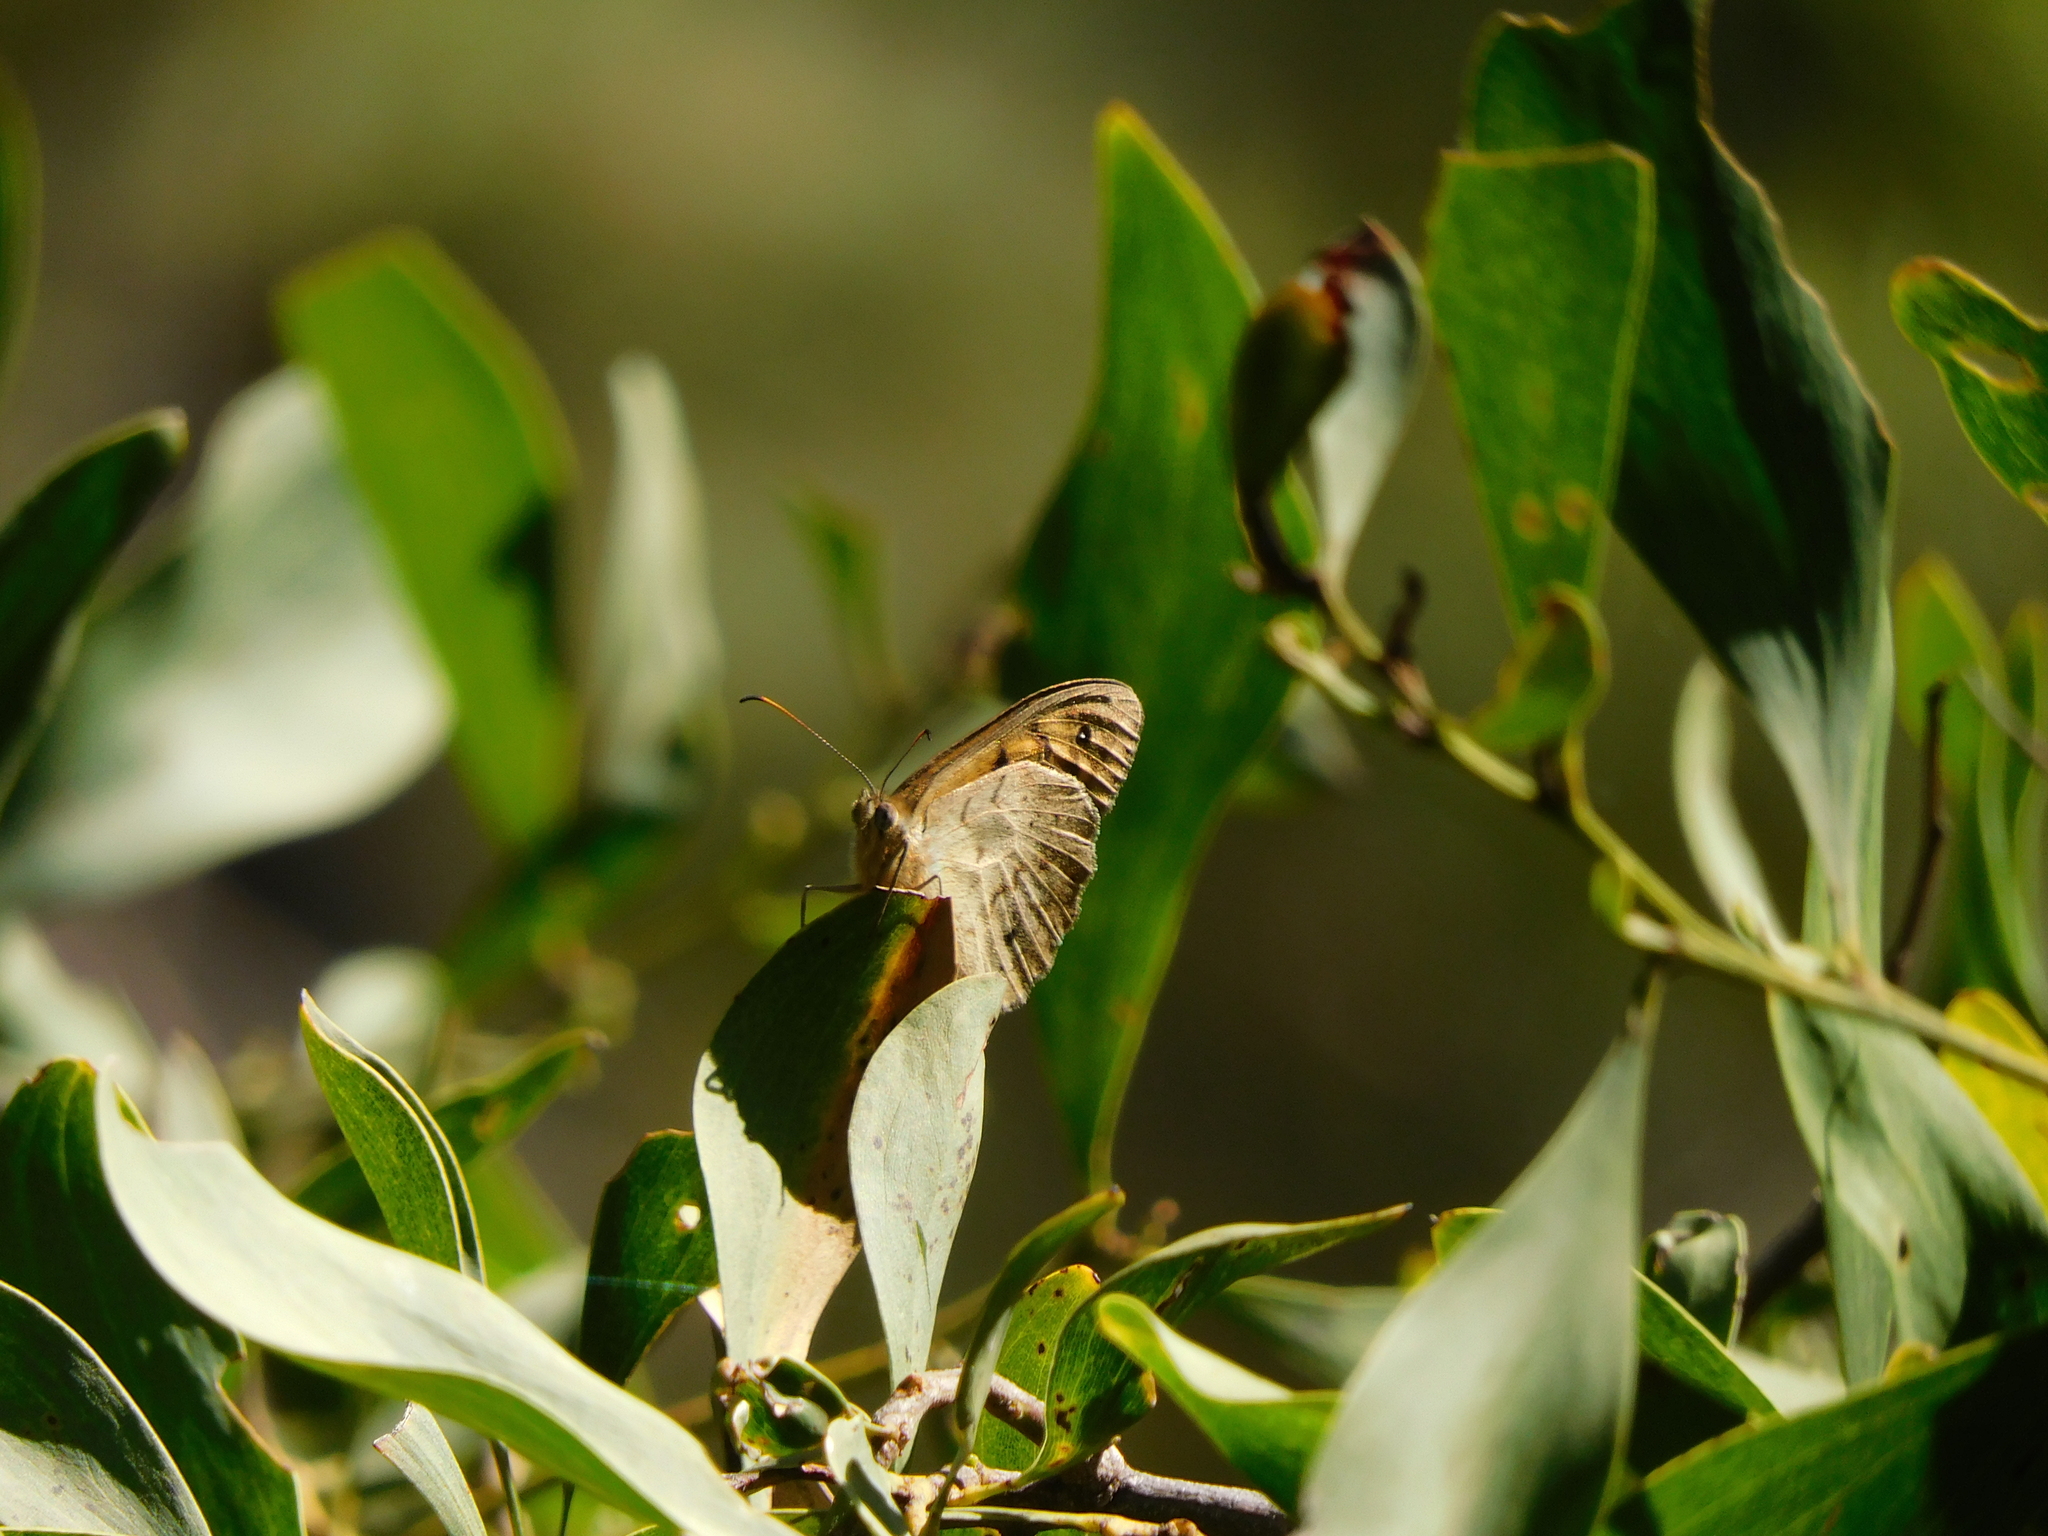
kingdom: Animalia
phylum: Arthropoda
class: Insecta
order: Lepidoptera
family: Nymphalidae
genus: Heteronympha
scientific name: Heteronympha merope
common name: Common brown
